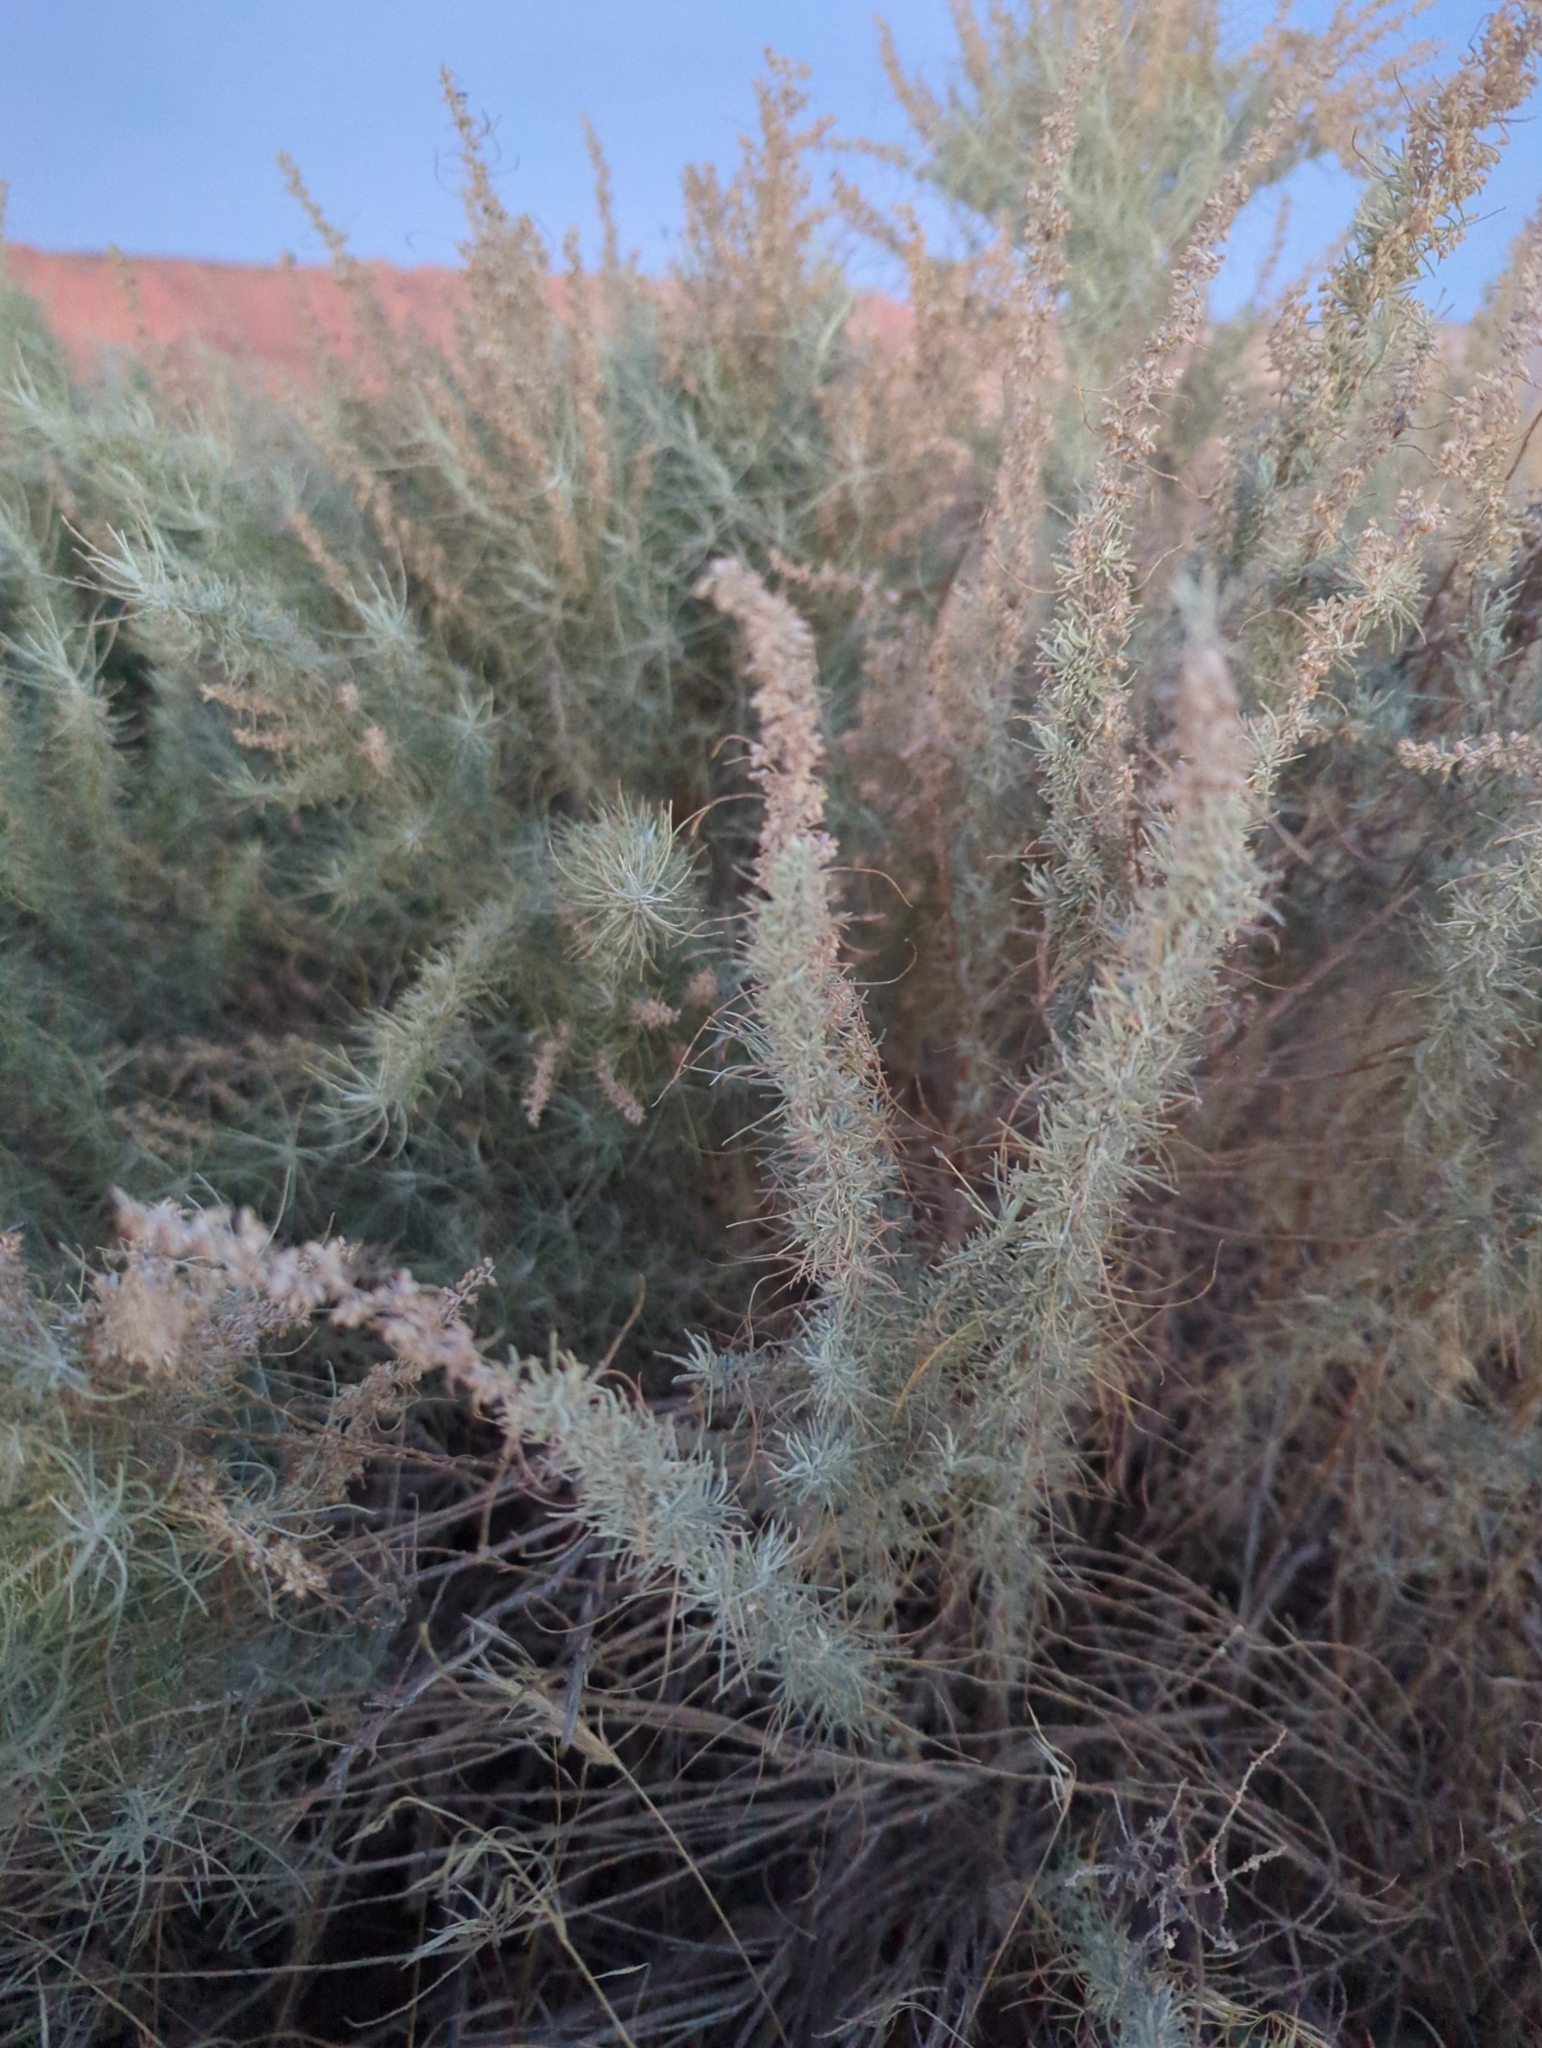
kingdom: Plantae
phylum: Tracheophyta
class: Magnoliopsida
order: Asterales
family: Asteraceae
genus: Artemisia
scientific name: Artemisia filifolia
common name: Sand-sage
